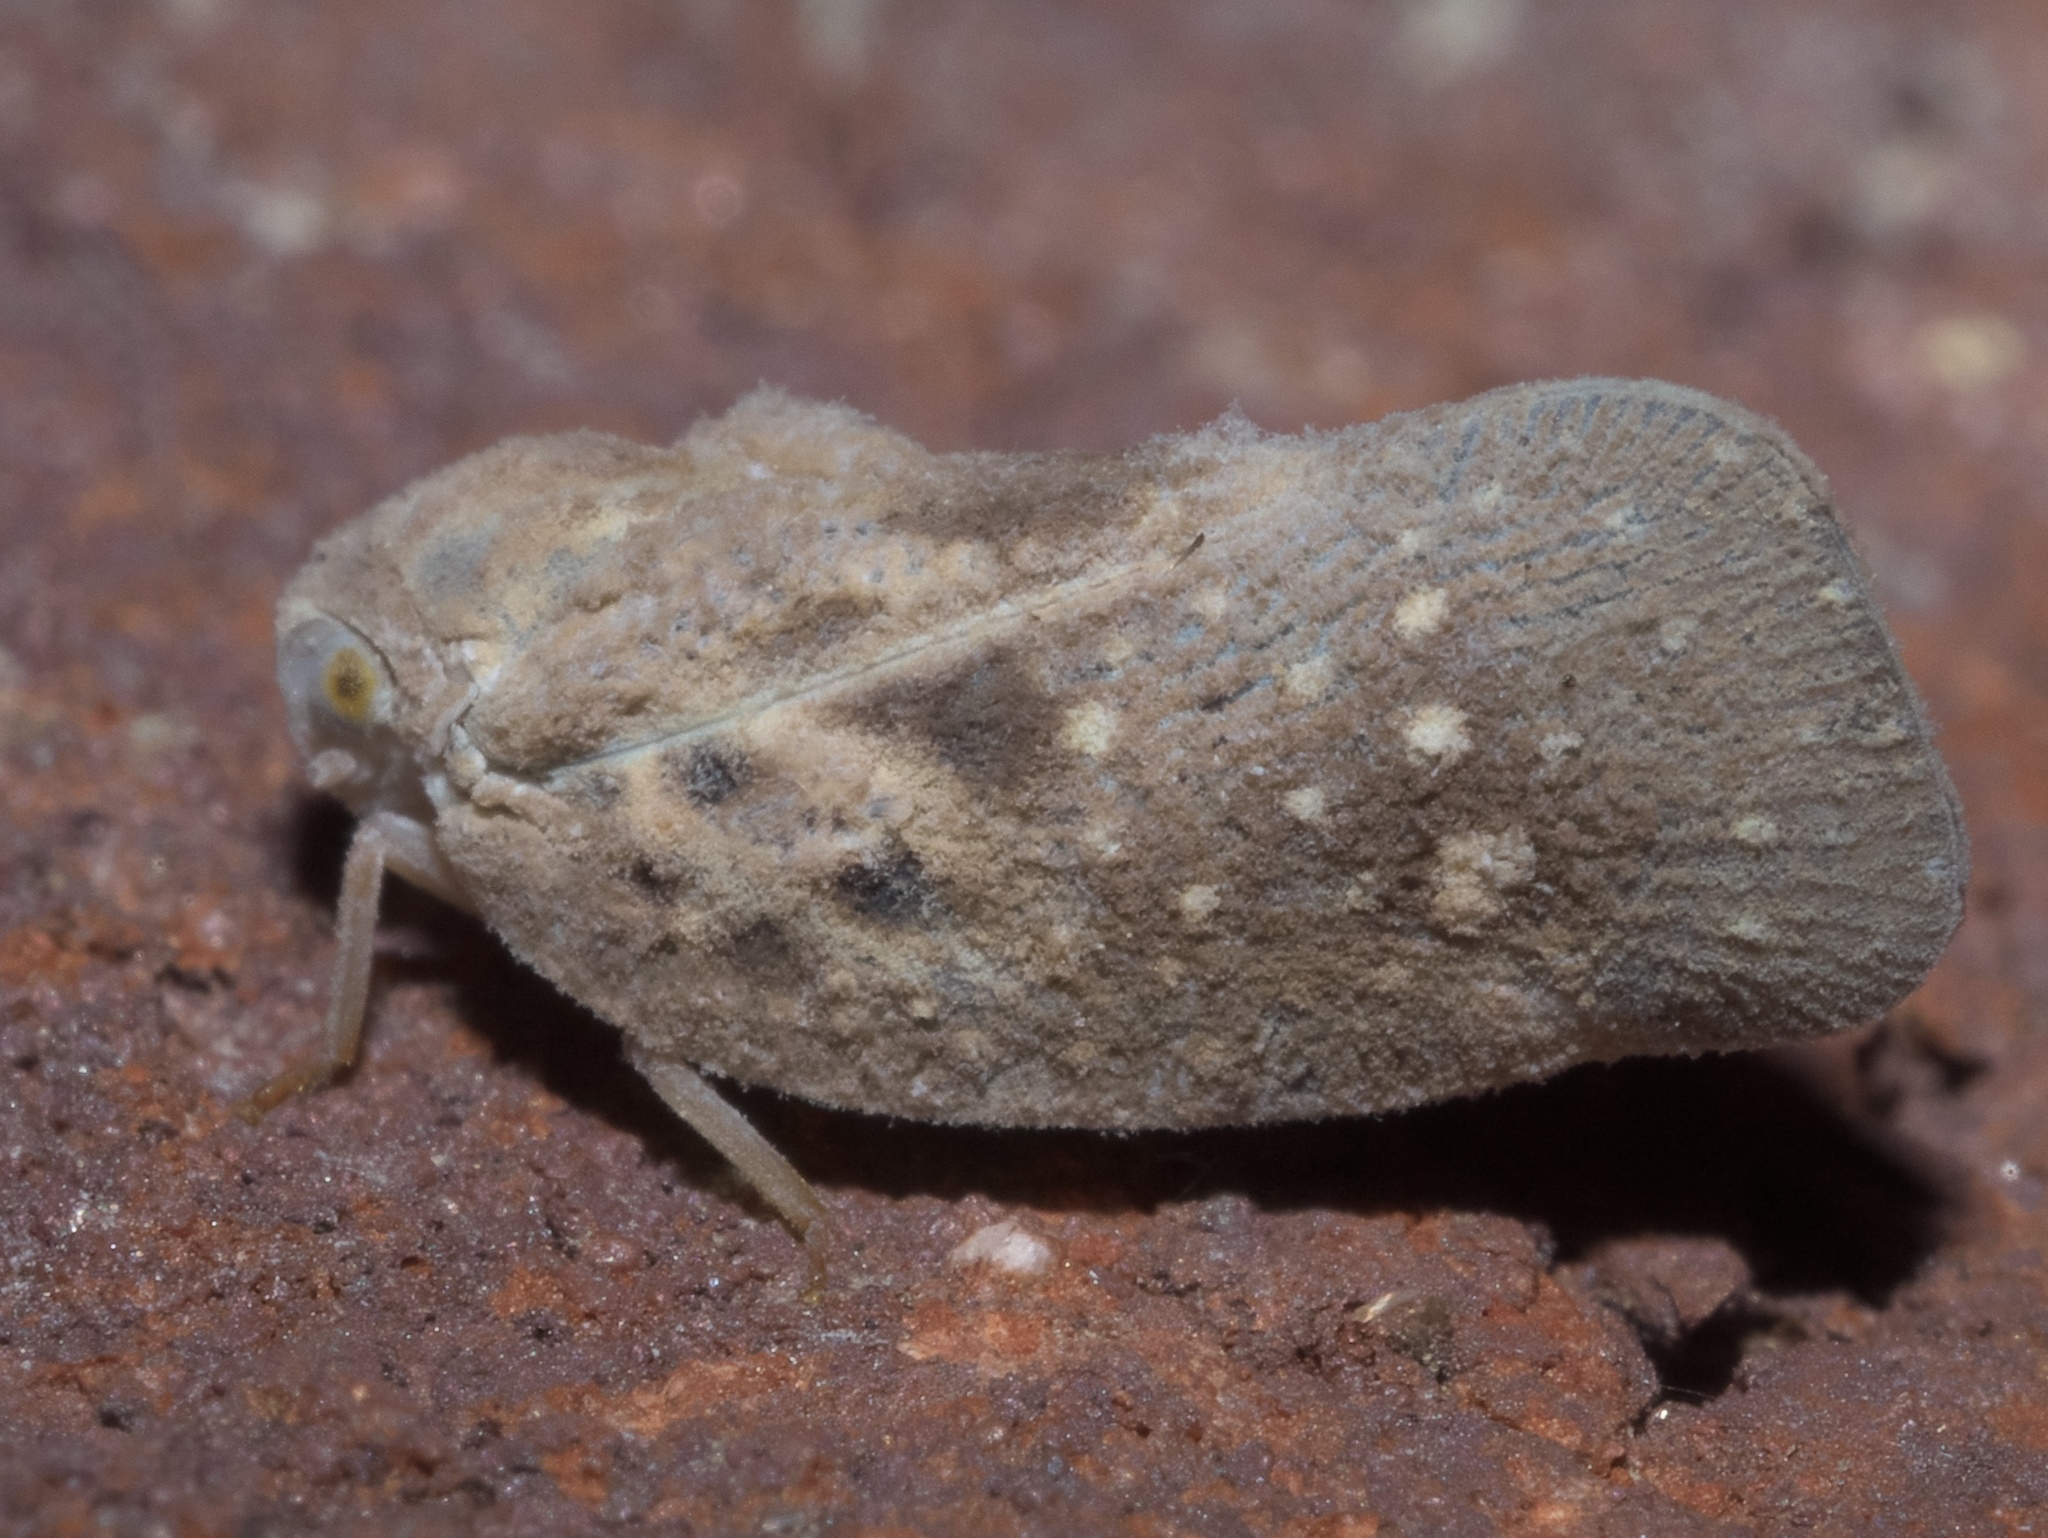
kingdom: Animalia
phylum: Arthropoda
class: Insecta
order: Hemiptera
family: Flatidae
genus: Metcalfa
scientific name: Metcalfa pruinosa
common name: Citrus flatid planthopper
